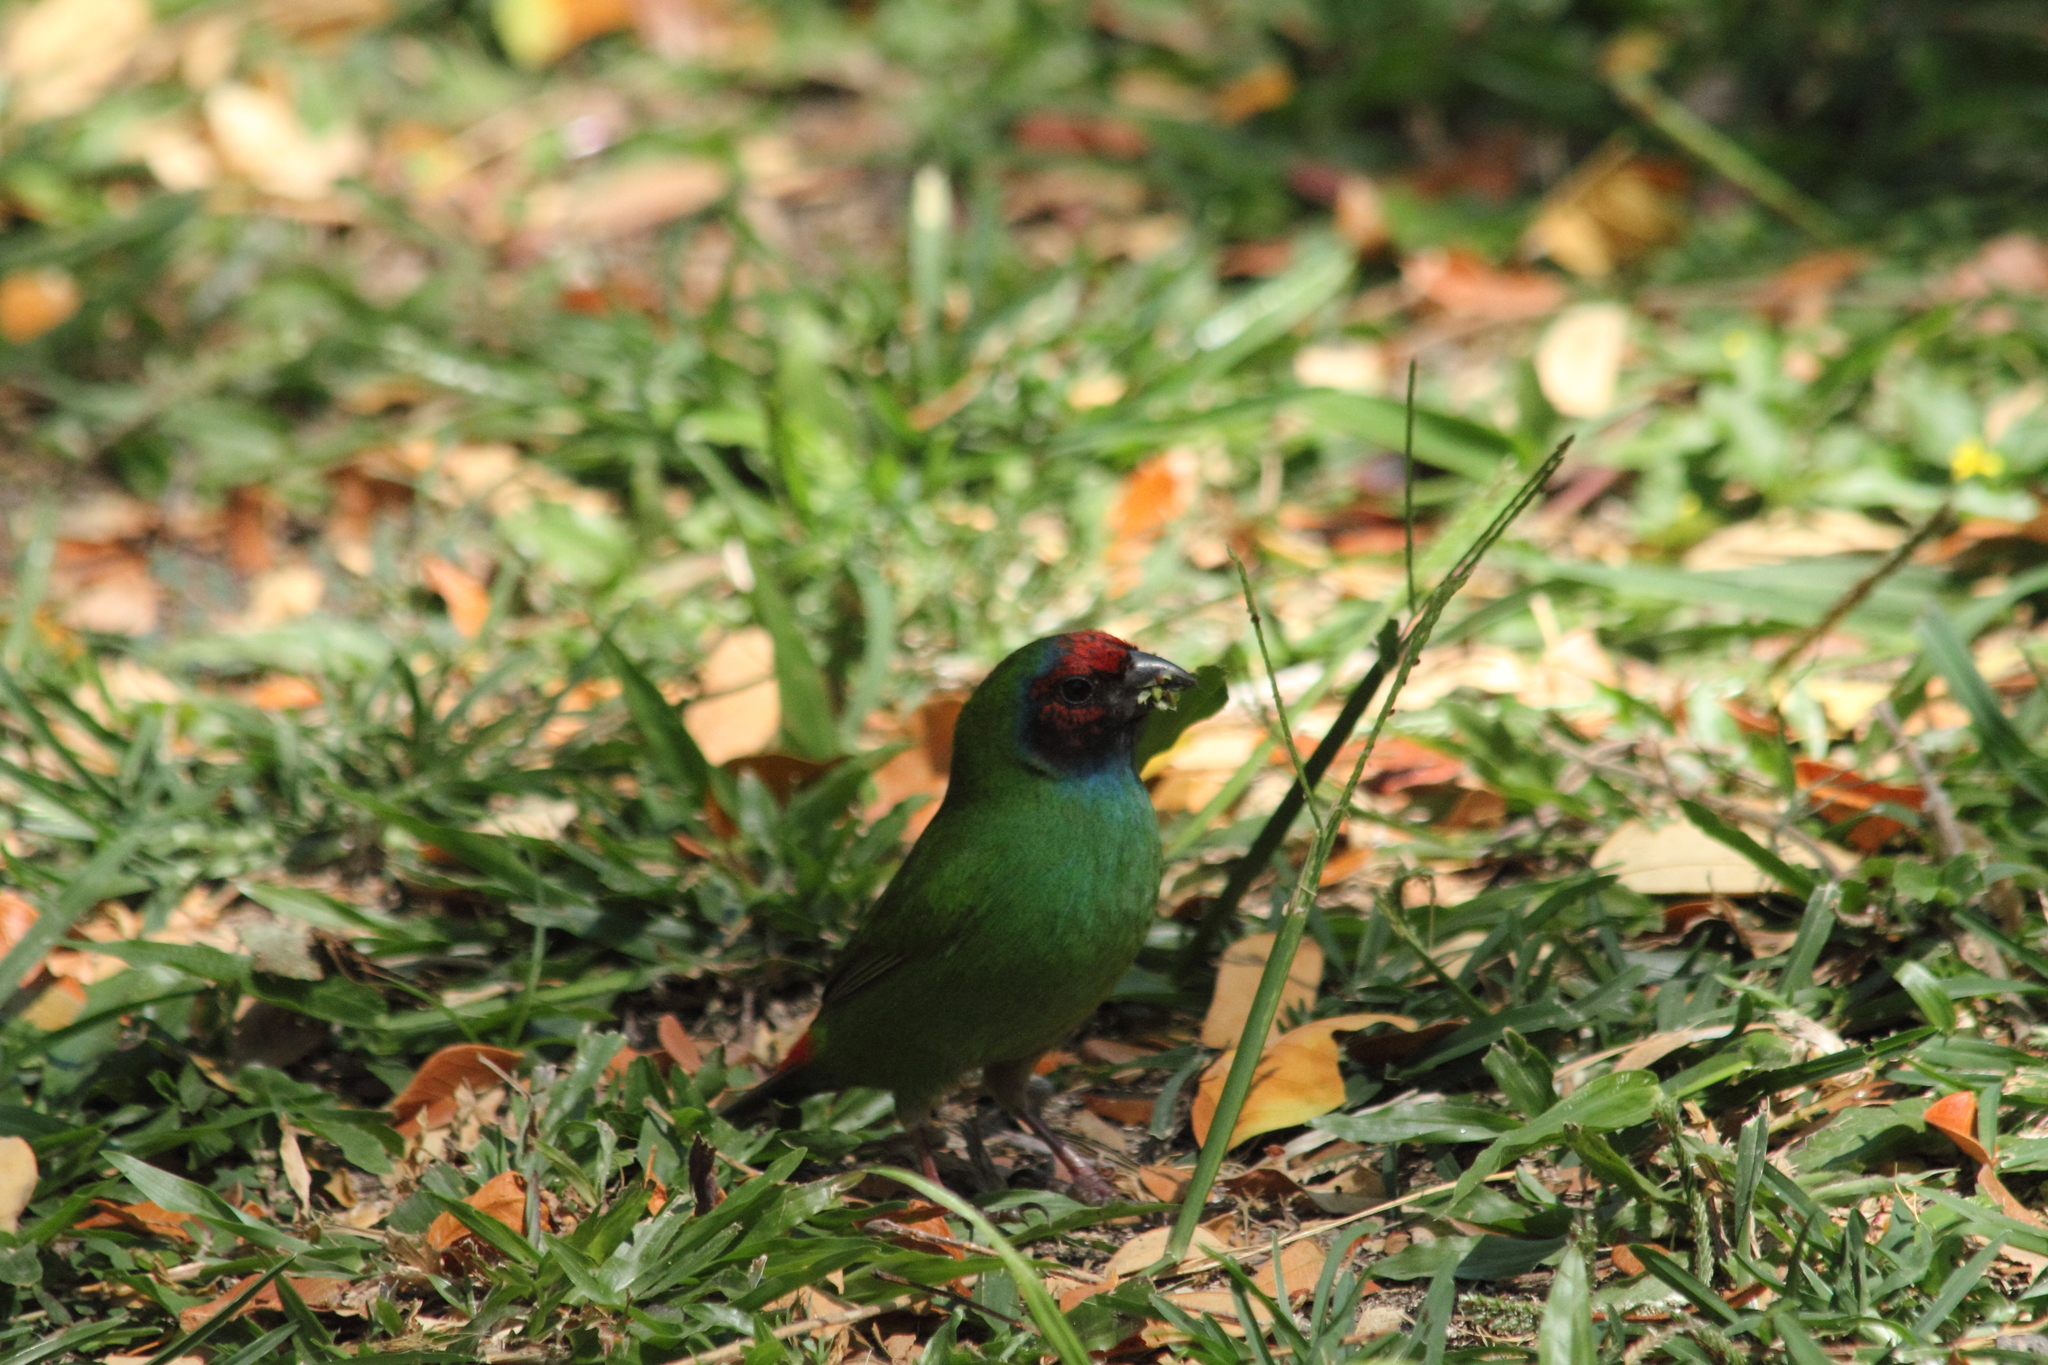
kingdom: Animalia
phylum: Chordata
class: Aves
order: Passeriformes
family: Estrildidae
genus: Erythrura
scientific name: Erythrura pealii
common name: Fiji parrotfinch
